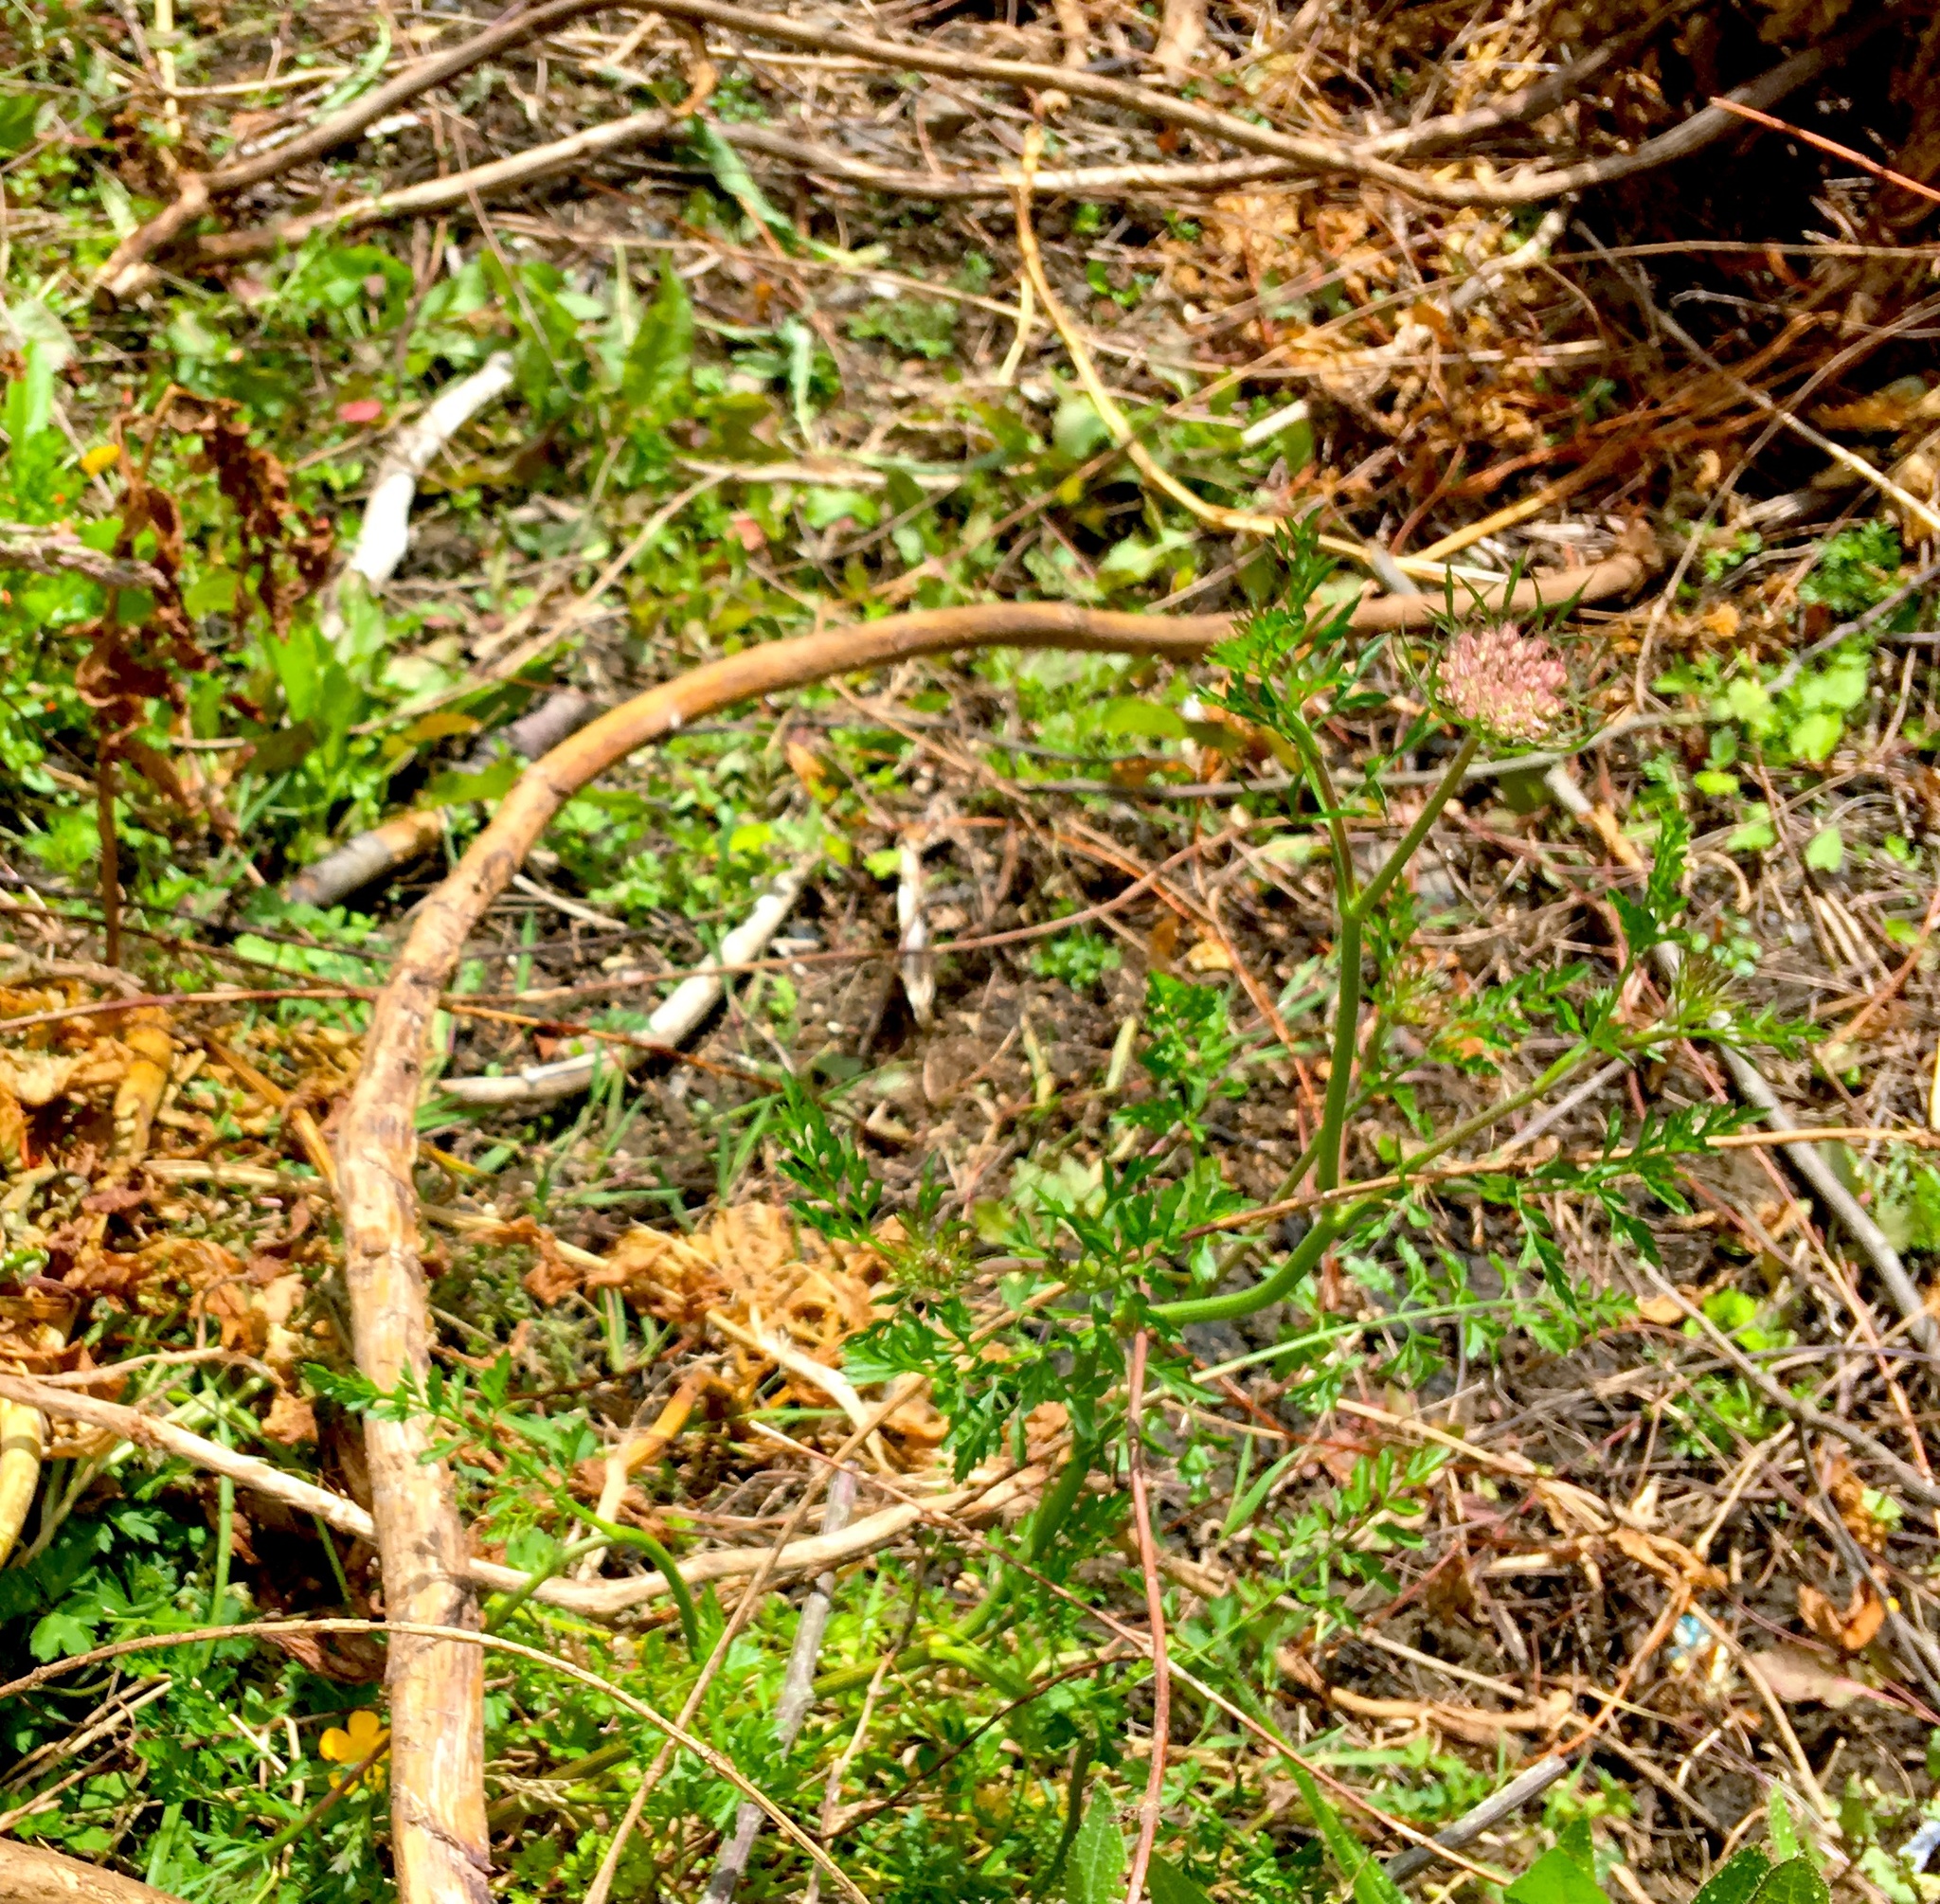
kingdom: Plantae
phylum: Tracheophyta
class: Magnoliopsida
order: Apiales
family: Apiaceae
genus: Daucus
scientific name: Daucus carota
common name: Wild carrot
